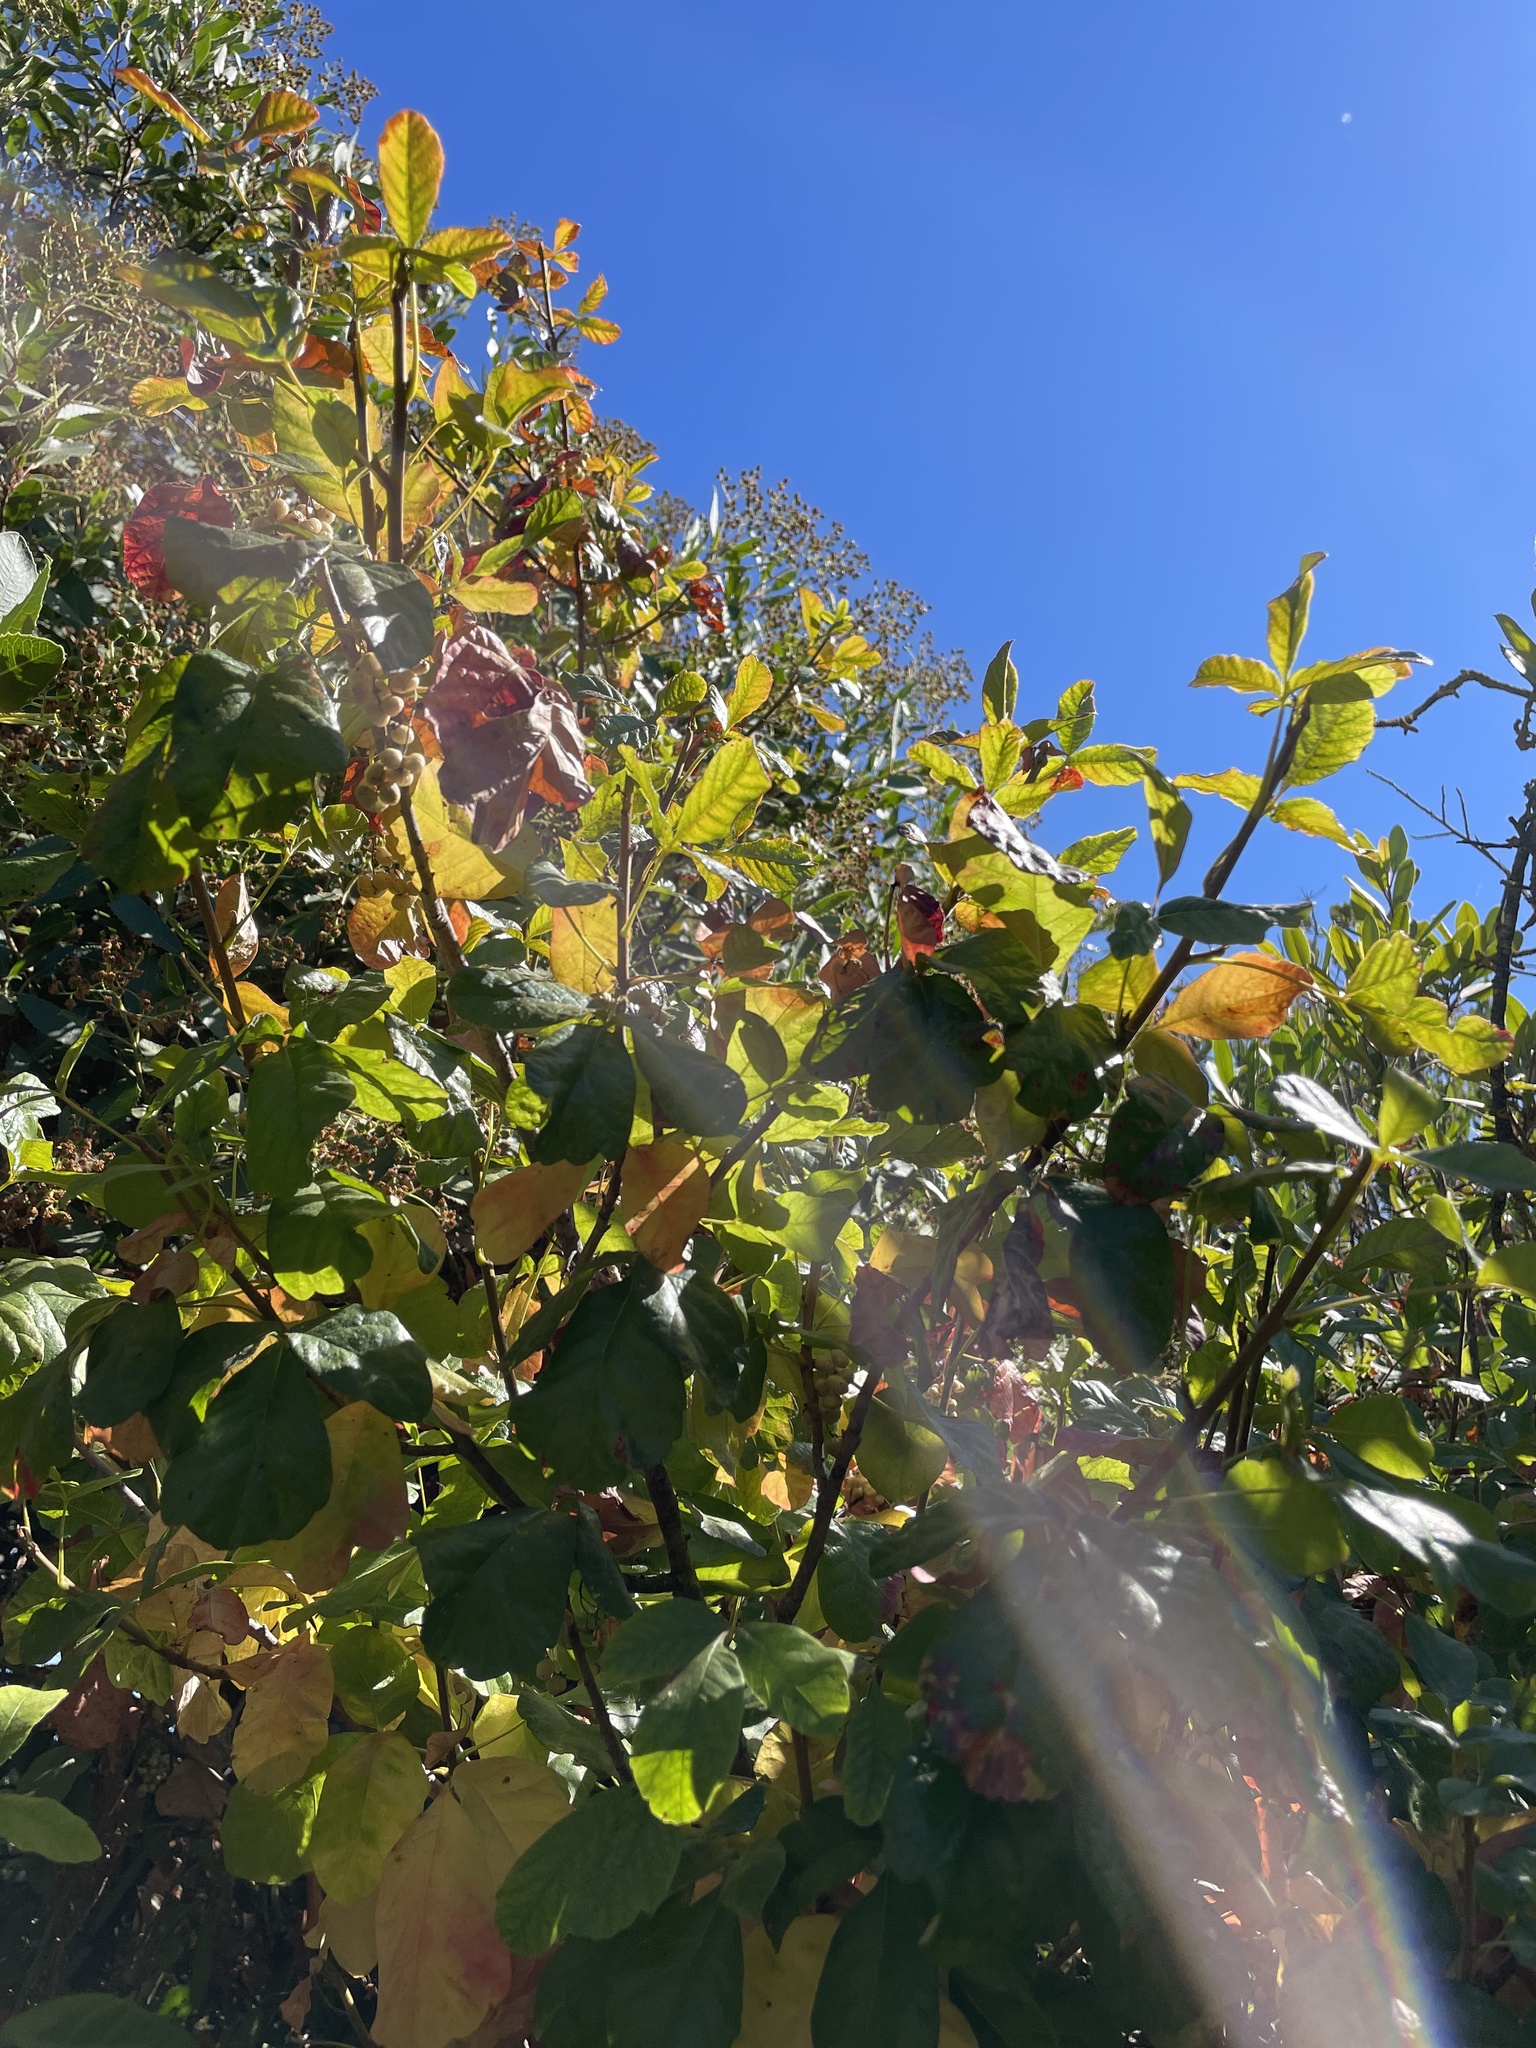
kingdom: Plantae
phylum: Tracheophyta
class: Magnoliopsida
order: Sapindales
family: Anacardiaceae
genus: Toxicodendron
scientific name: Toxicodendron diversilobum
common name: Pacific poison-oak
